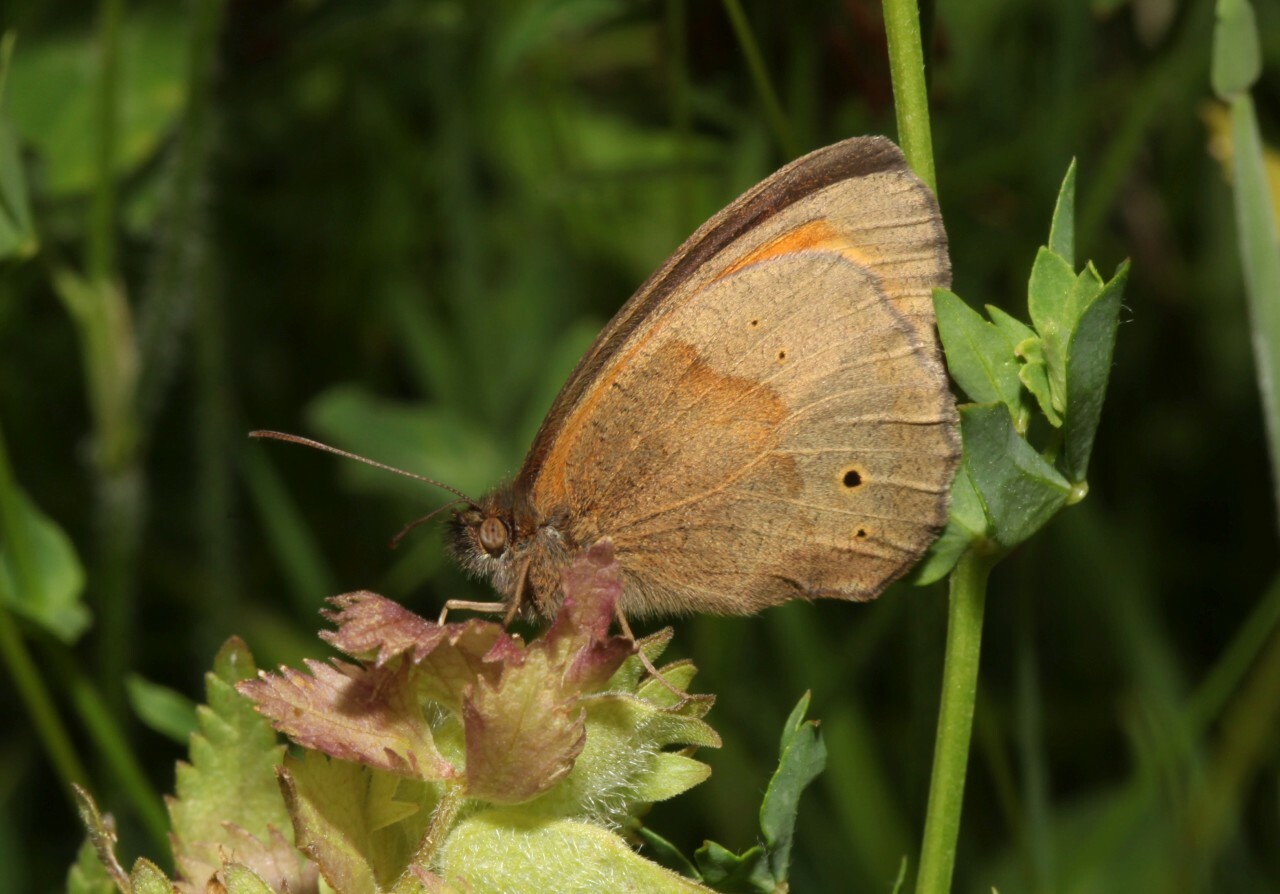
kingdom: Animalia
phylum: Arthropoda
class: Insecta
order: Lepidoptera
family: Nymphalidae
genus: Maniola
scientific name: Maniola jurtina
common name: Meadow brown
